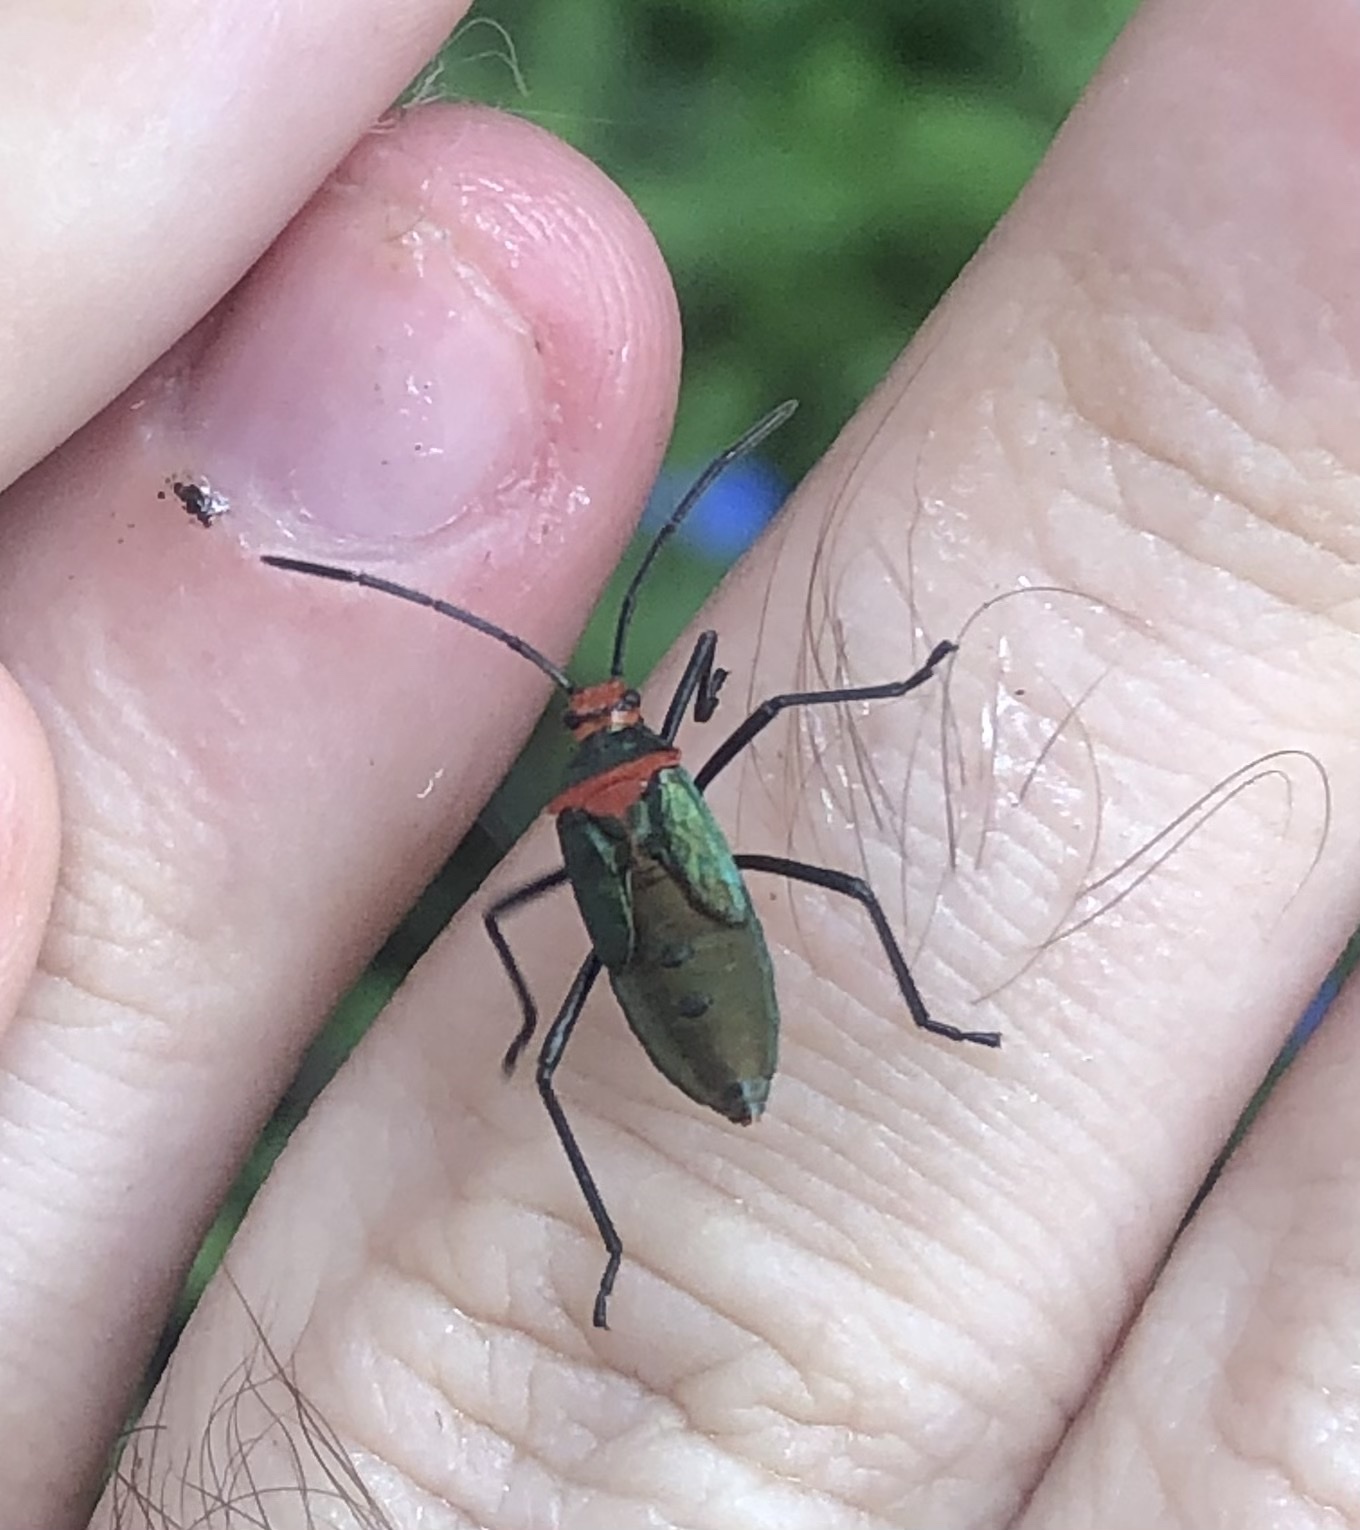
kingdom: Animalia
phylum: Arthropoda
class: Insecta
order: Hemiptera
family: Coreidae
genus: Sphictyrtus
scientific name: Sphictyrtus chrysis
